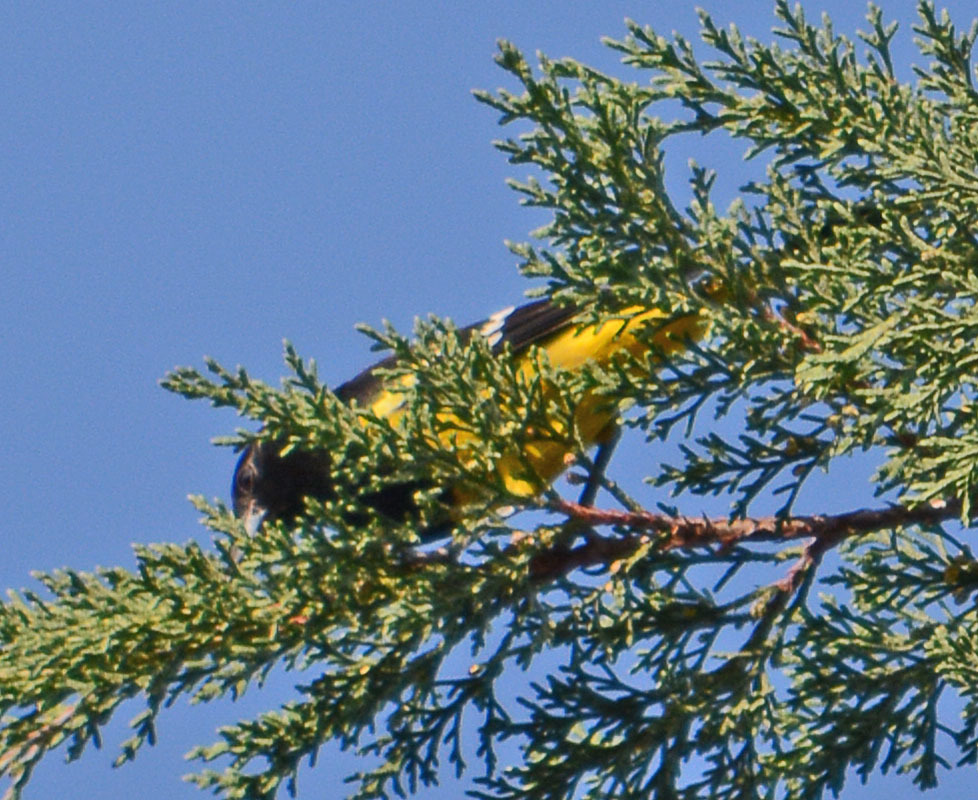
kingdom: Animalia
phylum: Chordata
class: Aves
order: Passeriformes
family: Icteridae
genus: Icterus
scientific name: Icterus parisorum
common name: Scott's oriole
